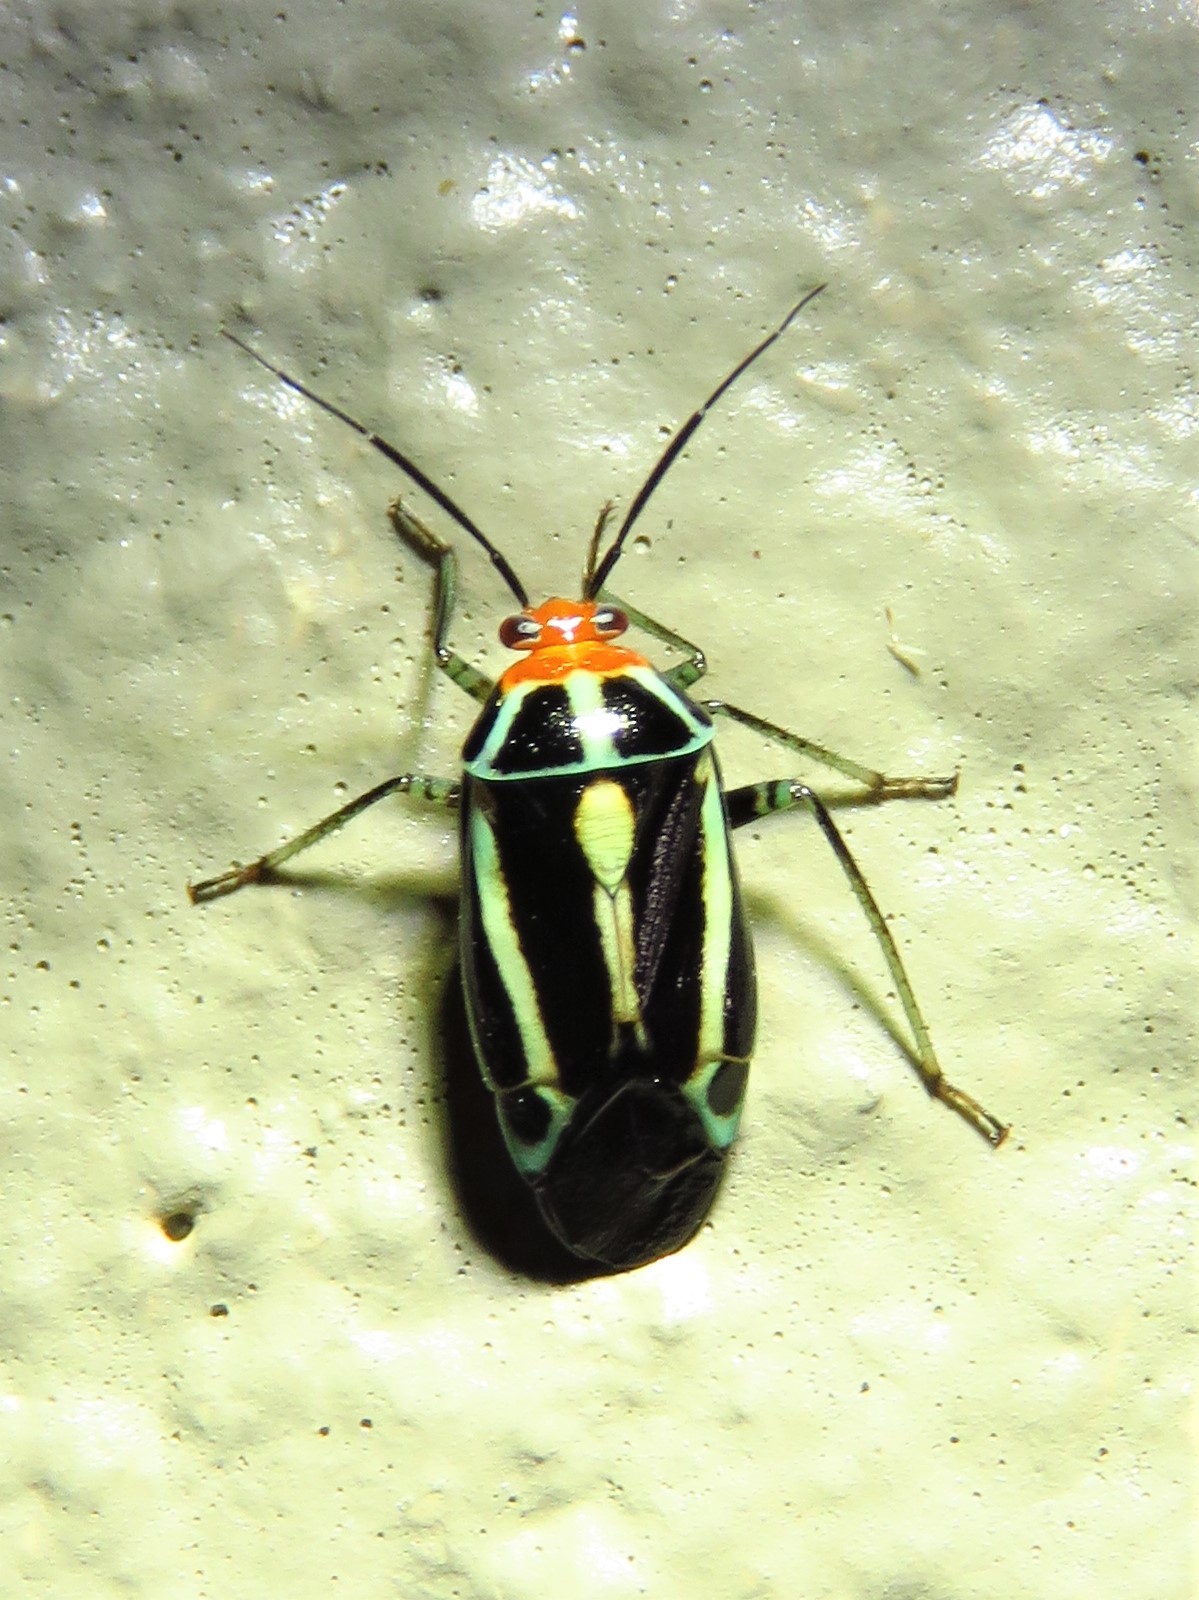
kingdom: Animalia
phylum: Arthropoda
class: Insecta
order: Hemiptera
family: Miridae
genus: Poecilocapsus
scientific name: Poecilocapsus lineatus
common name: Four-lined plant bug
